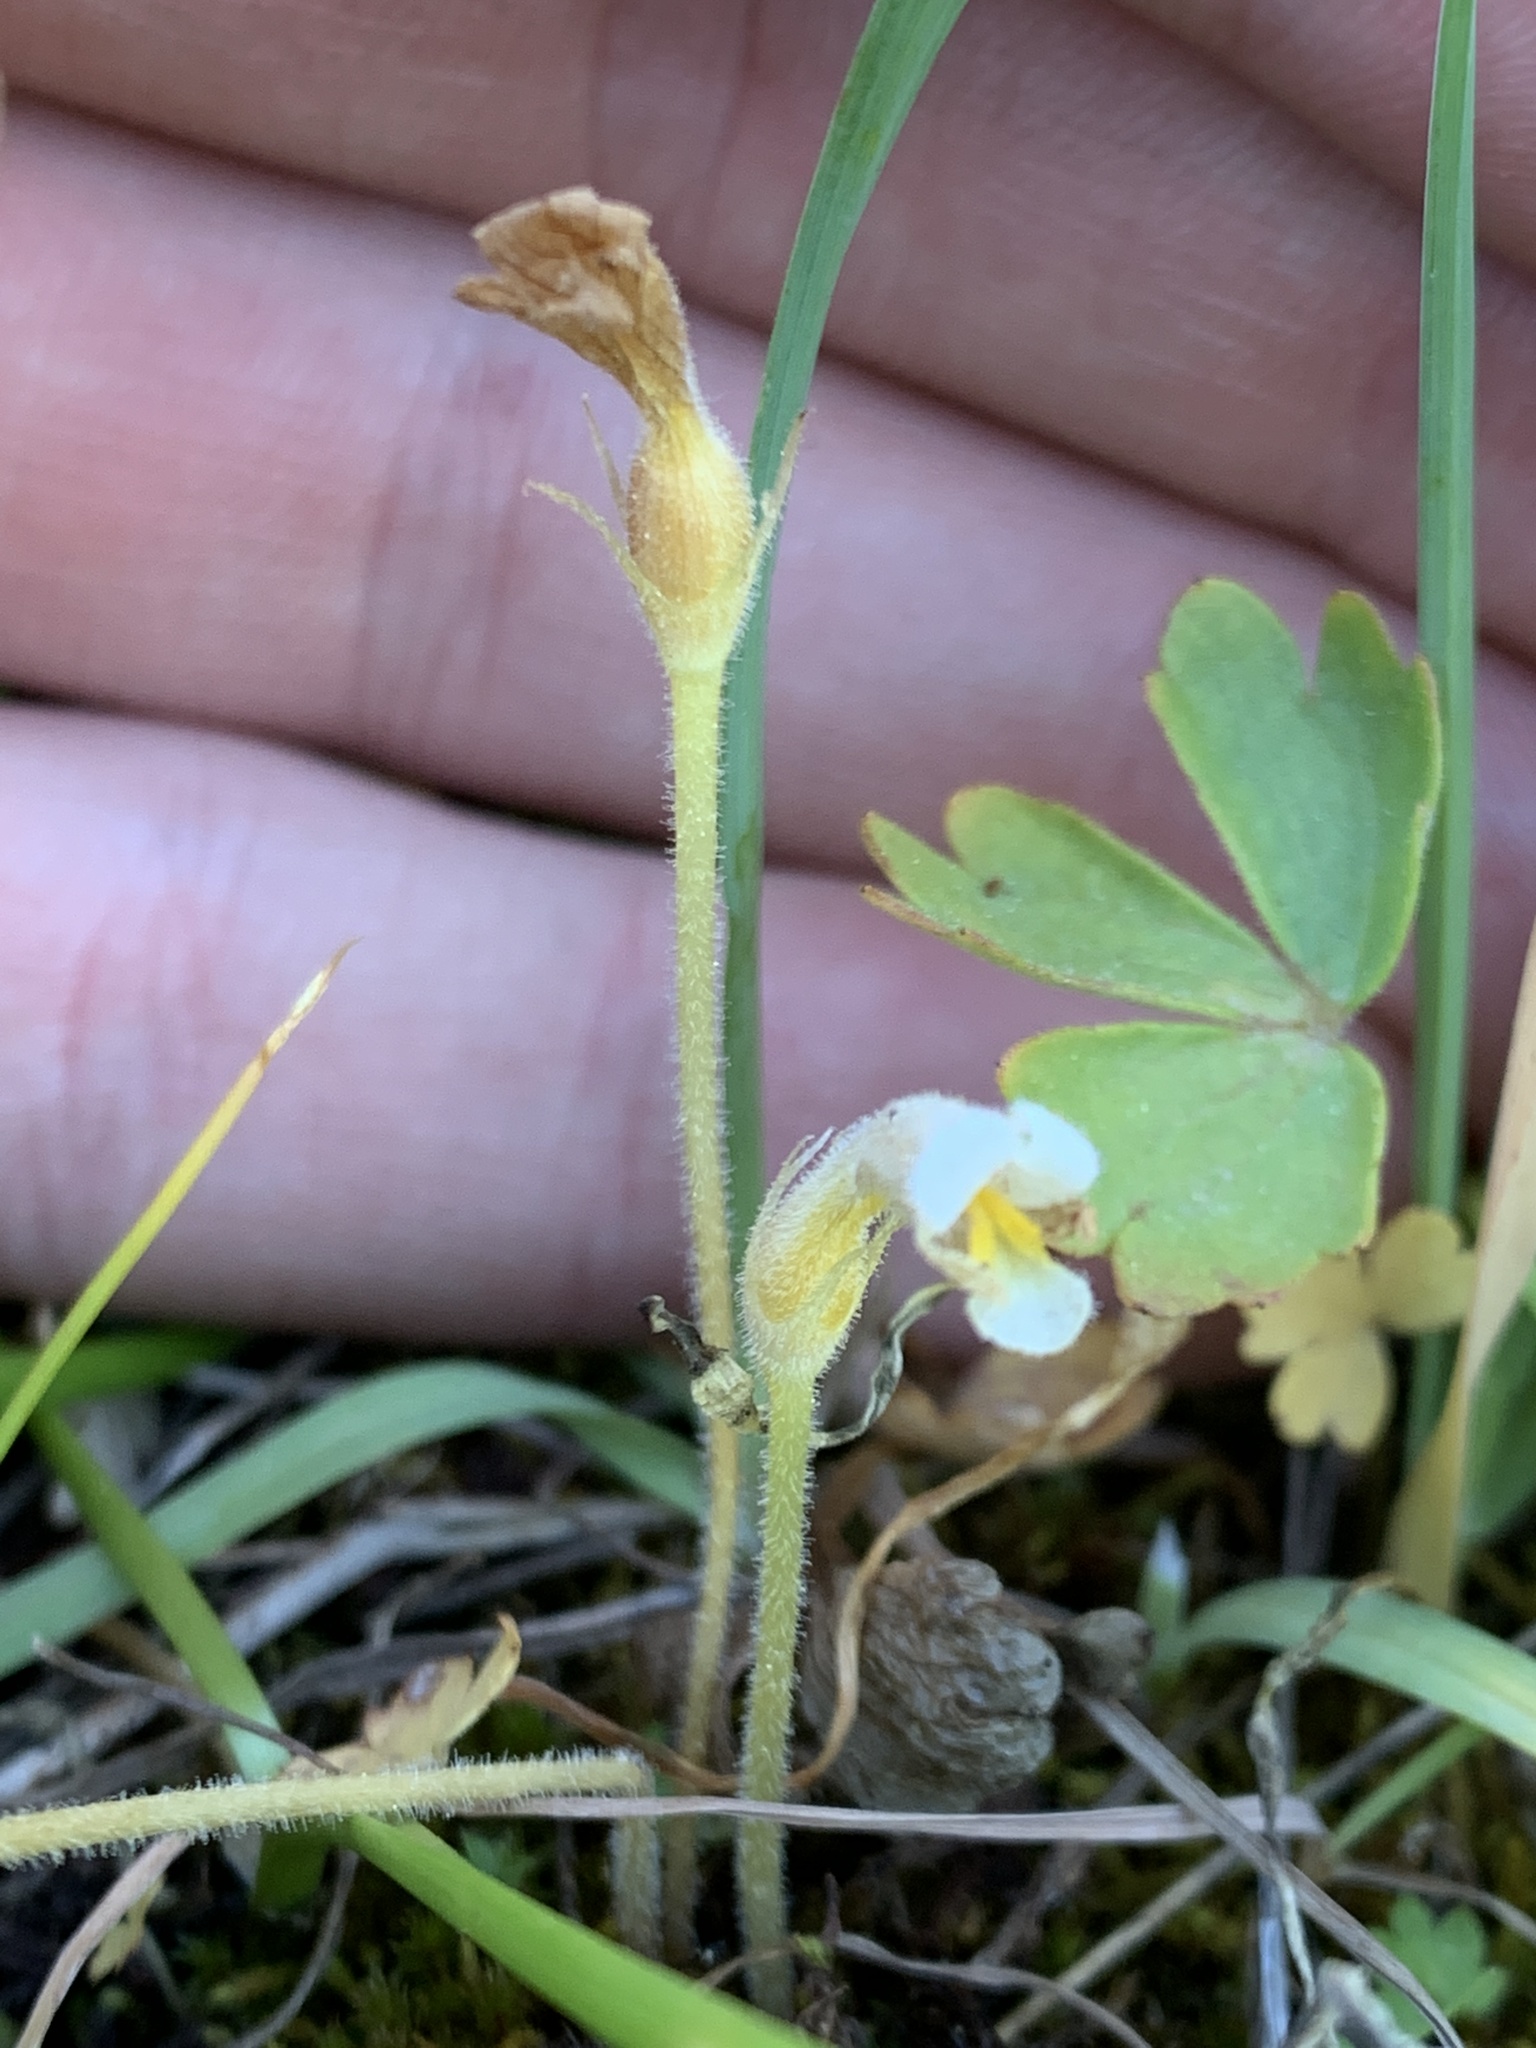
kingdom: Plantae
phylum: Tracheophyta
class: Magnoliopsida
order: Lamiales
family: Orobanchaceae
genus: Aphyllon
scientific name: Aphyllon uniflorum
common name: One-flowered broomrape
